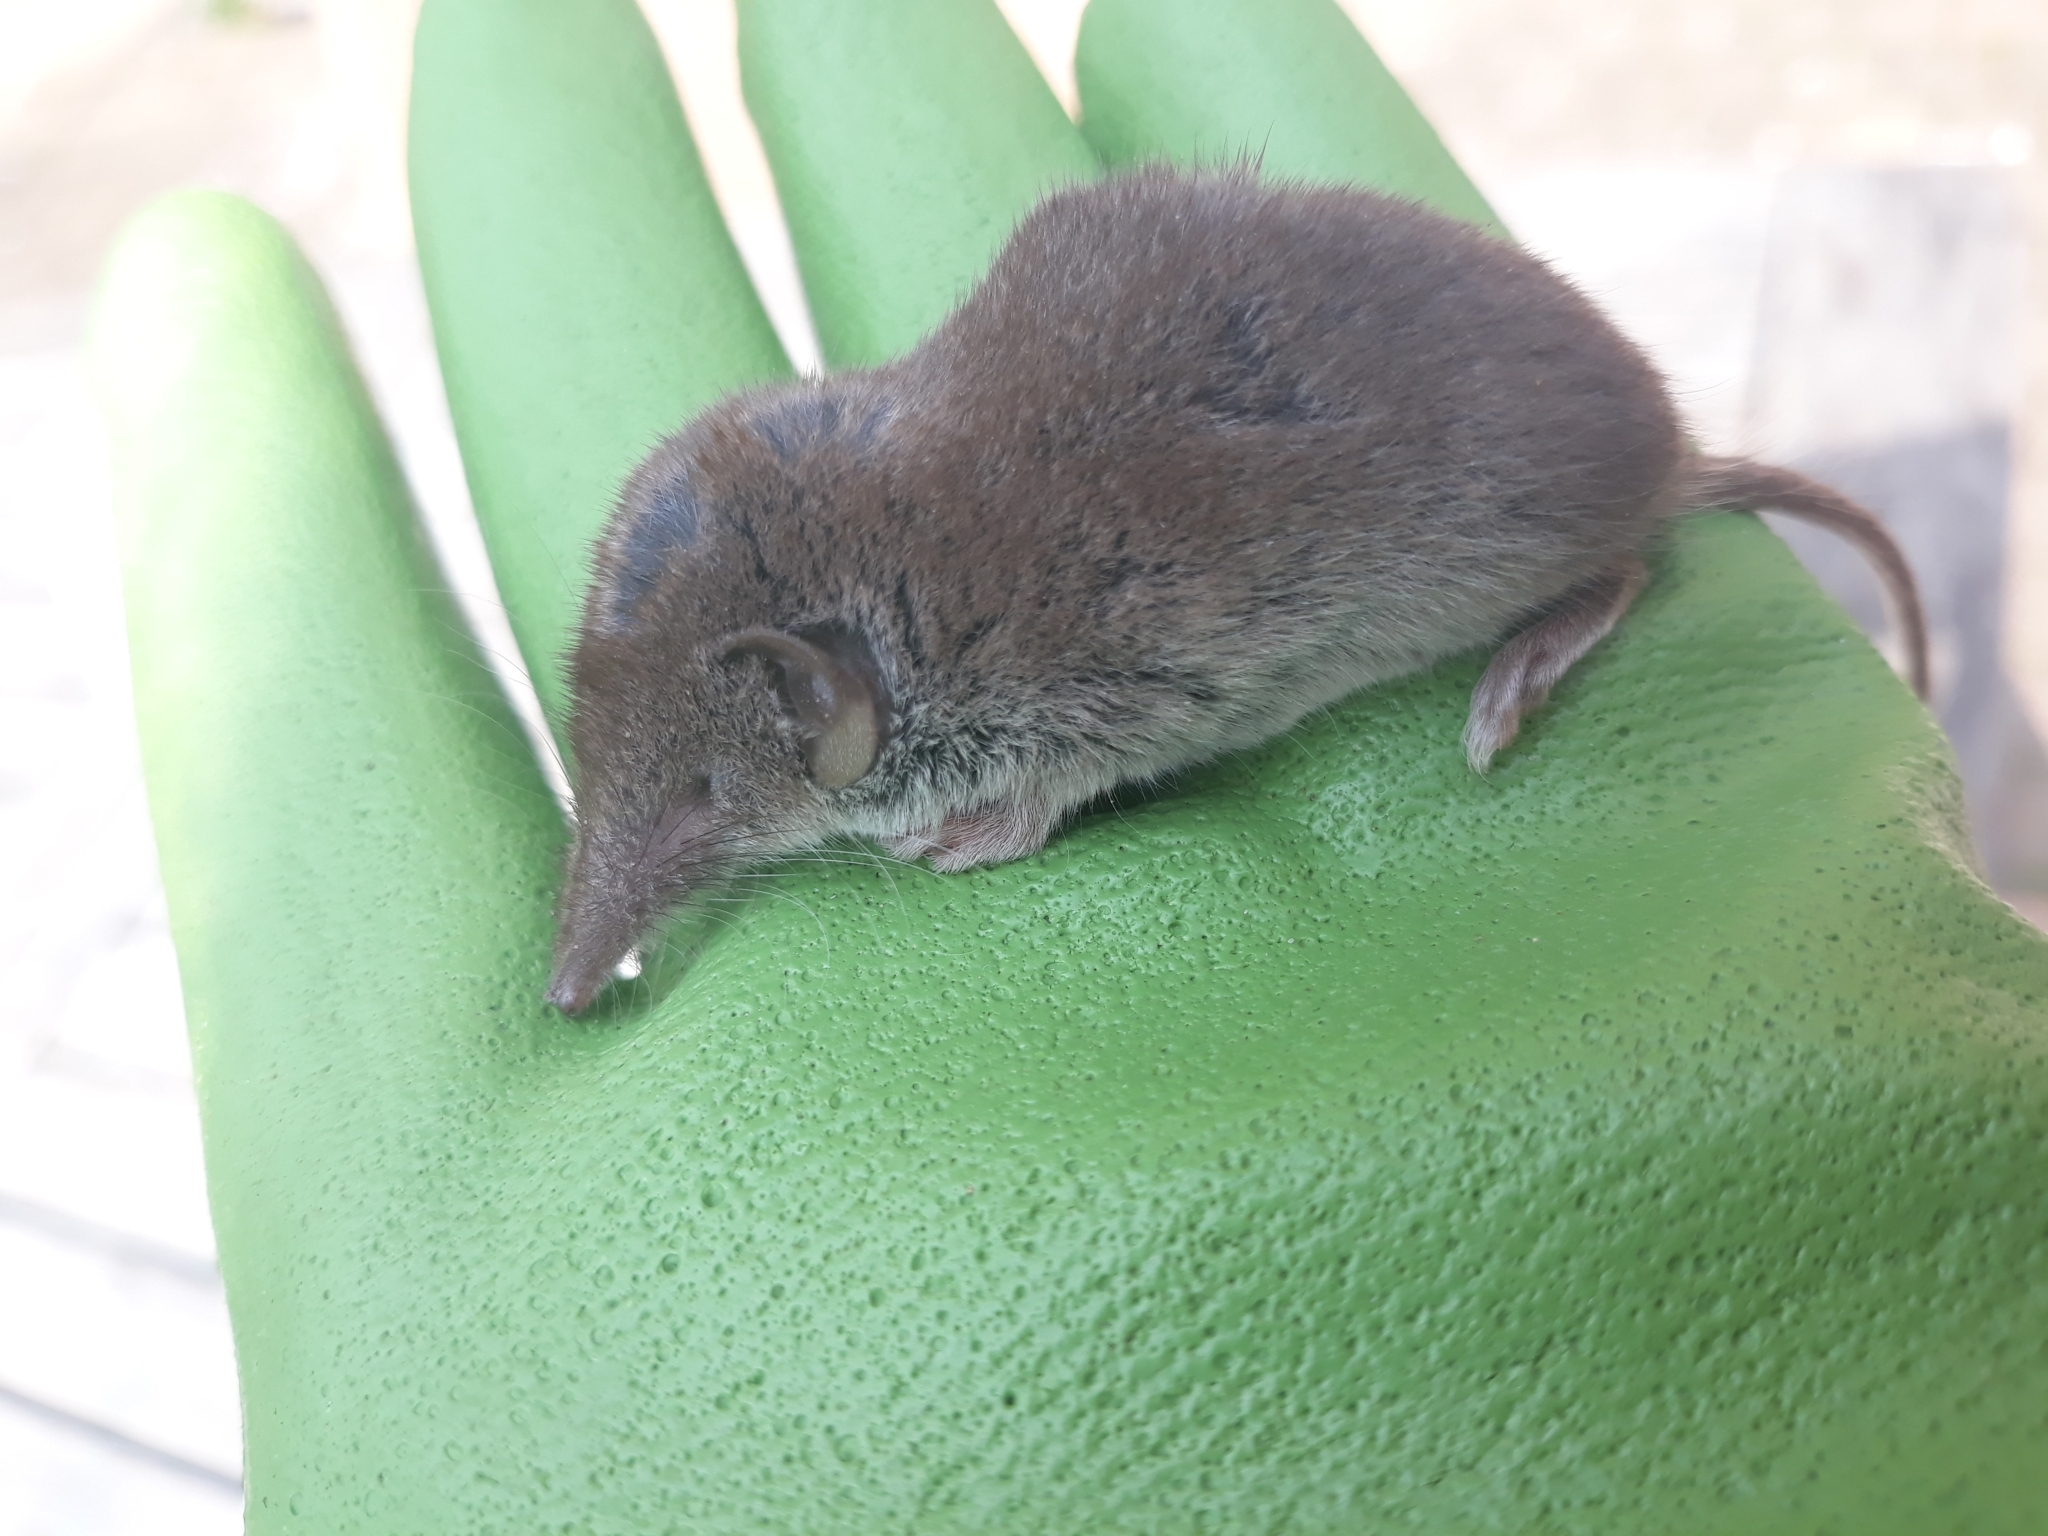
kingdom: Animalia
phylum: Chordata
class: Mammalia
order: Soricomorpha
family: Soricidae
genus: Crocidura
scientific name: Crocidura russula
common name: Greater white-toothed shrew
